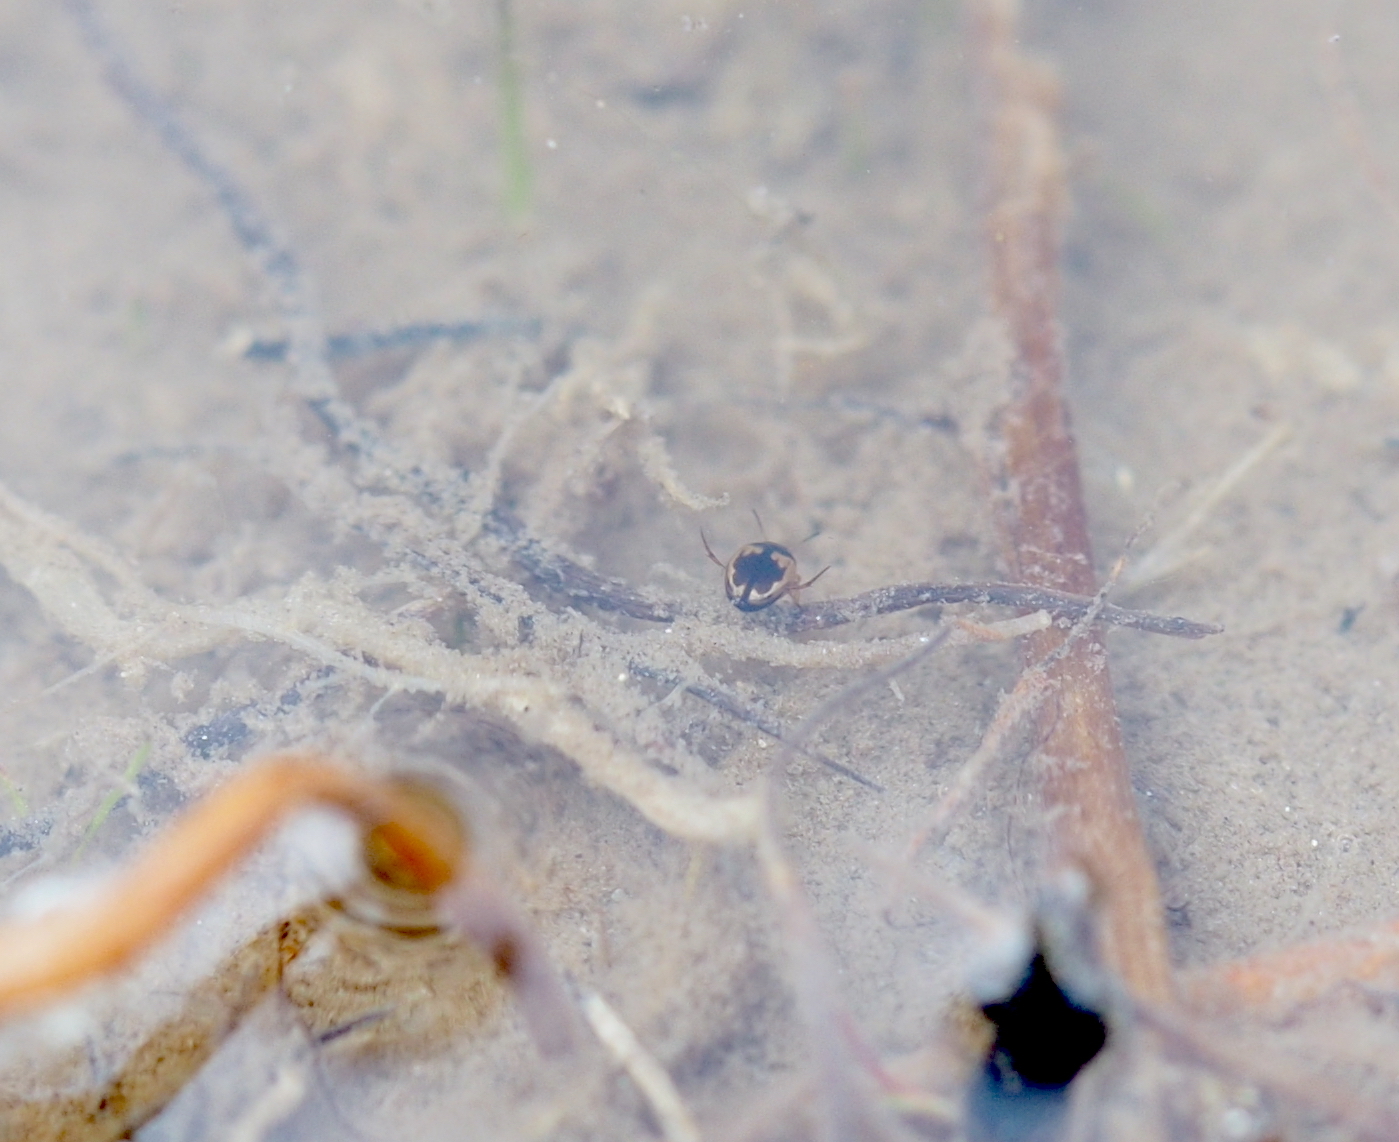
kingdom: Animalia
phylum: Arthropoda
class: Insecta
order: Coleoptera
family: Dytiscidae
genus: Hydroglyphus
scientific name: Hydroglyphus geminus
